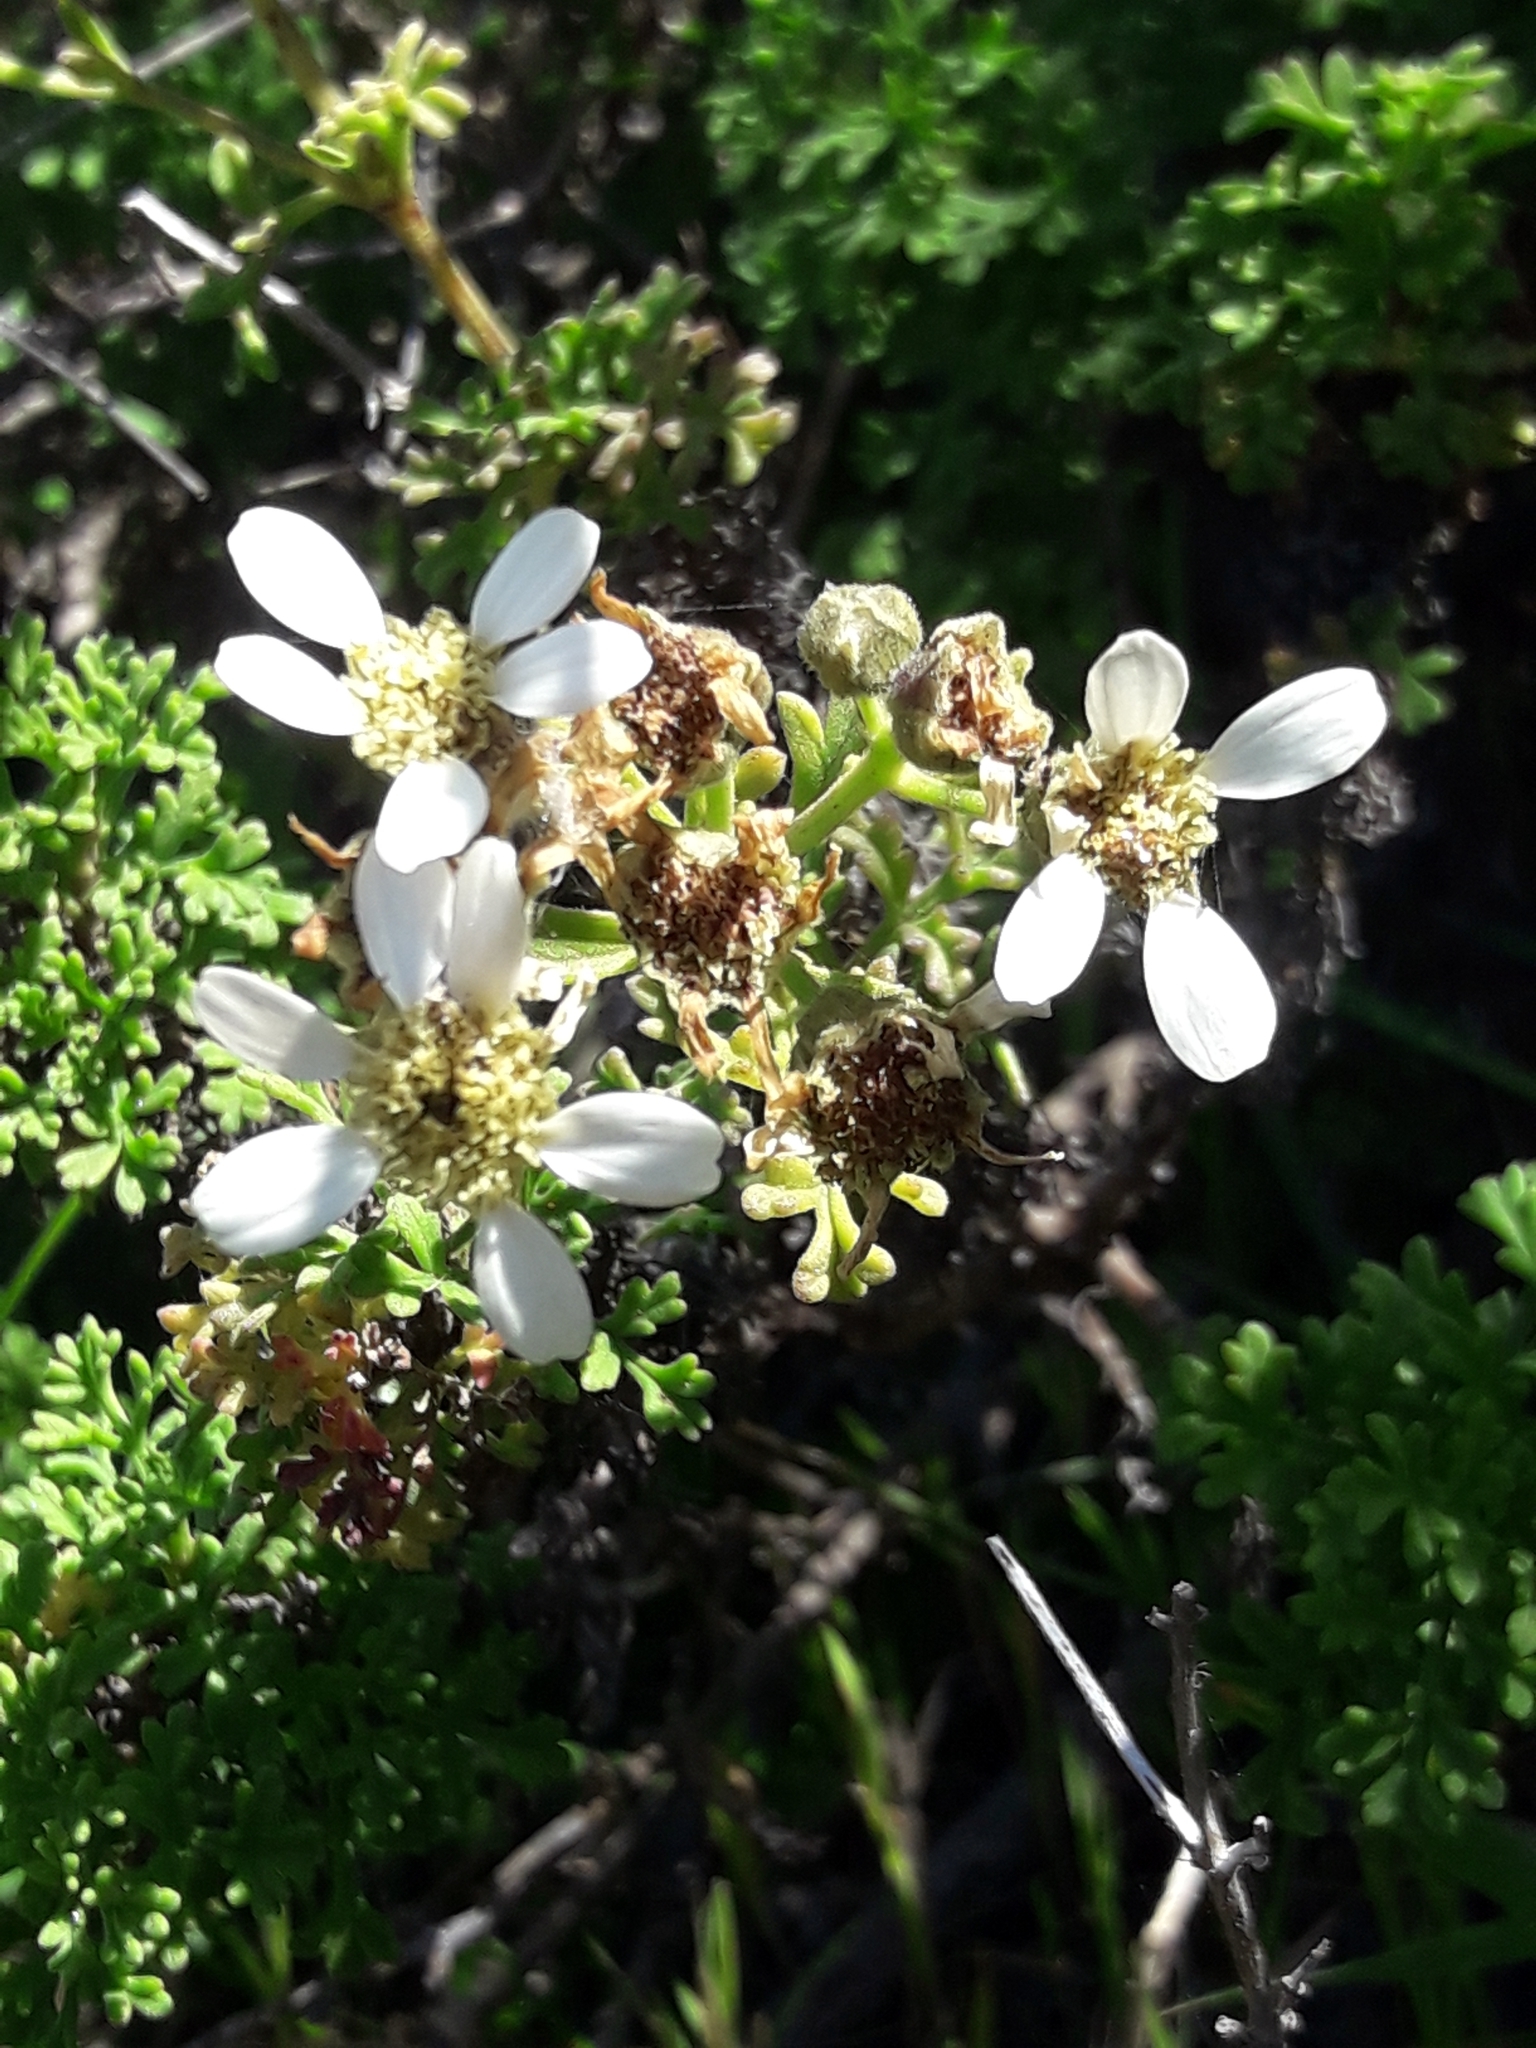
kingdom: Plantae
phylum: Tracheophyta
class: Magnoliopsida
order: Asterales
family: Asteraceae
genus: Bahia
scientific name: Bahia ambrosioides
